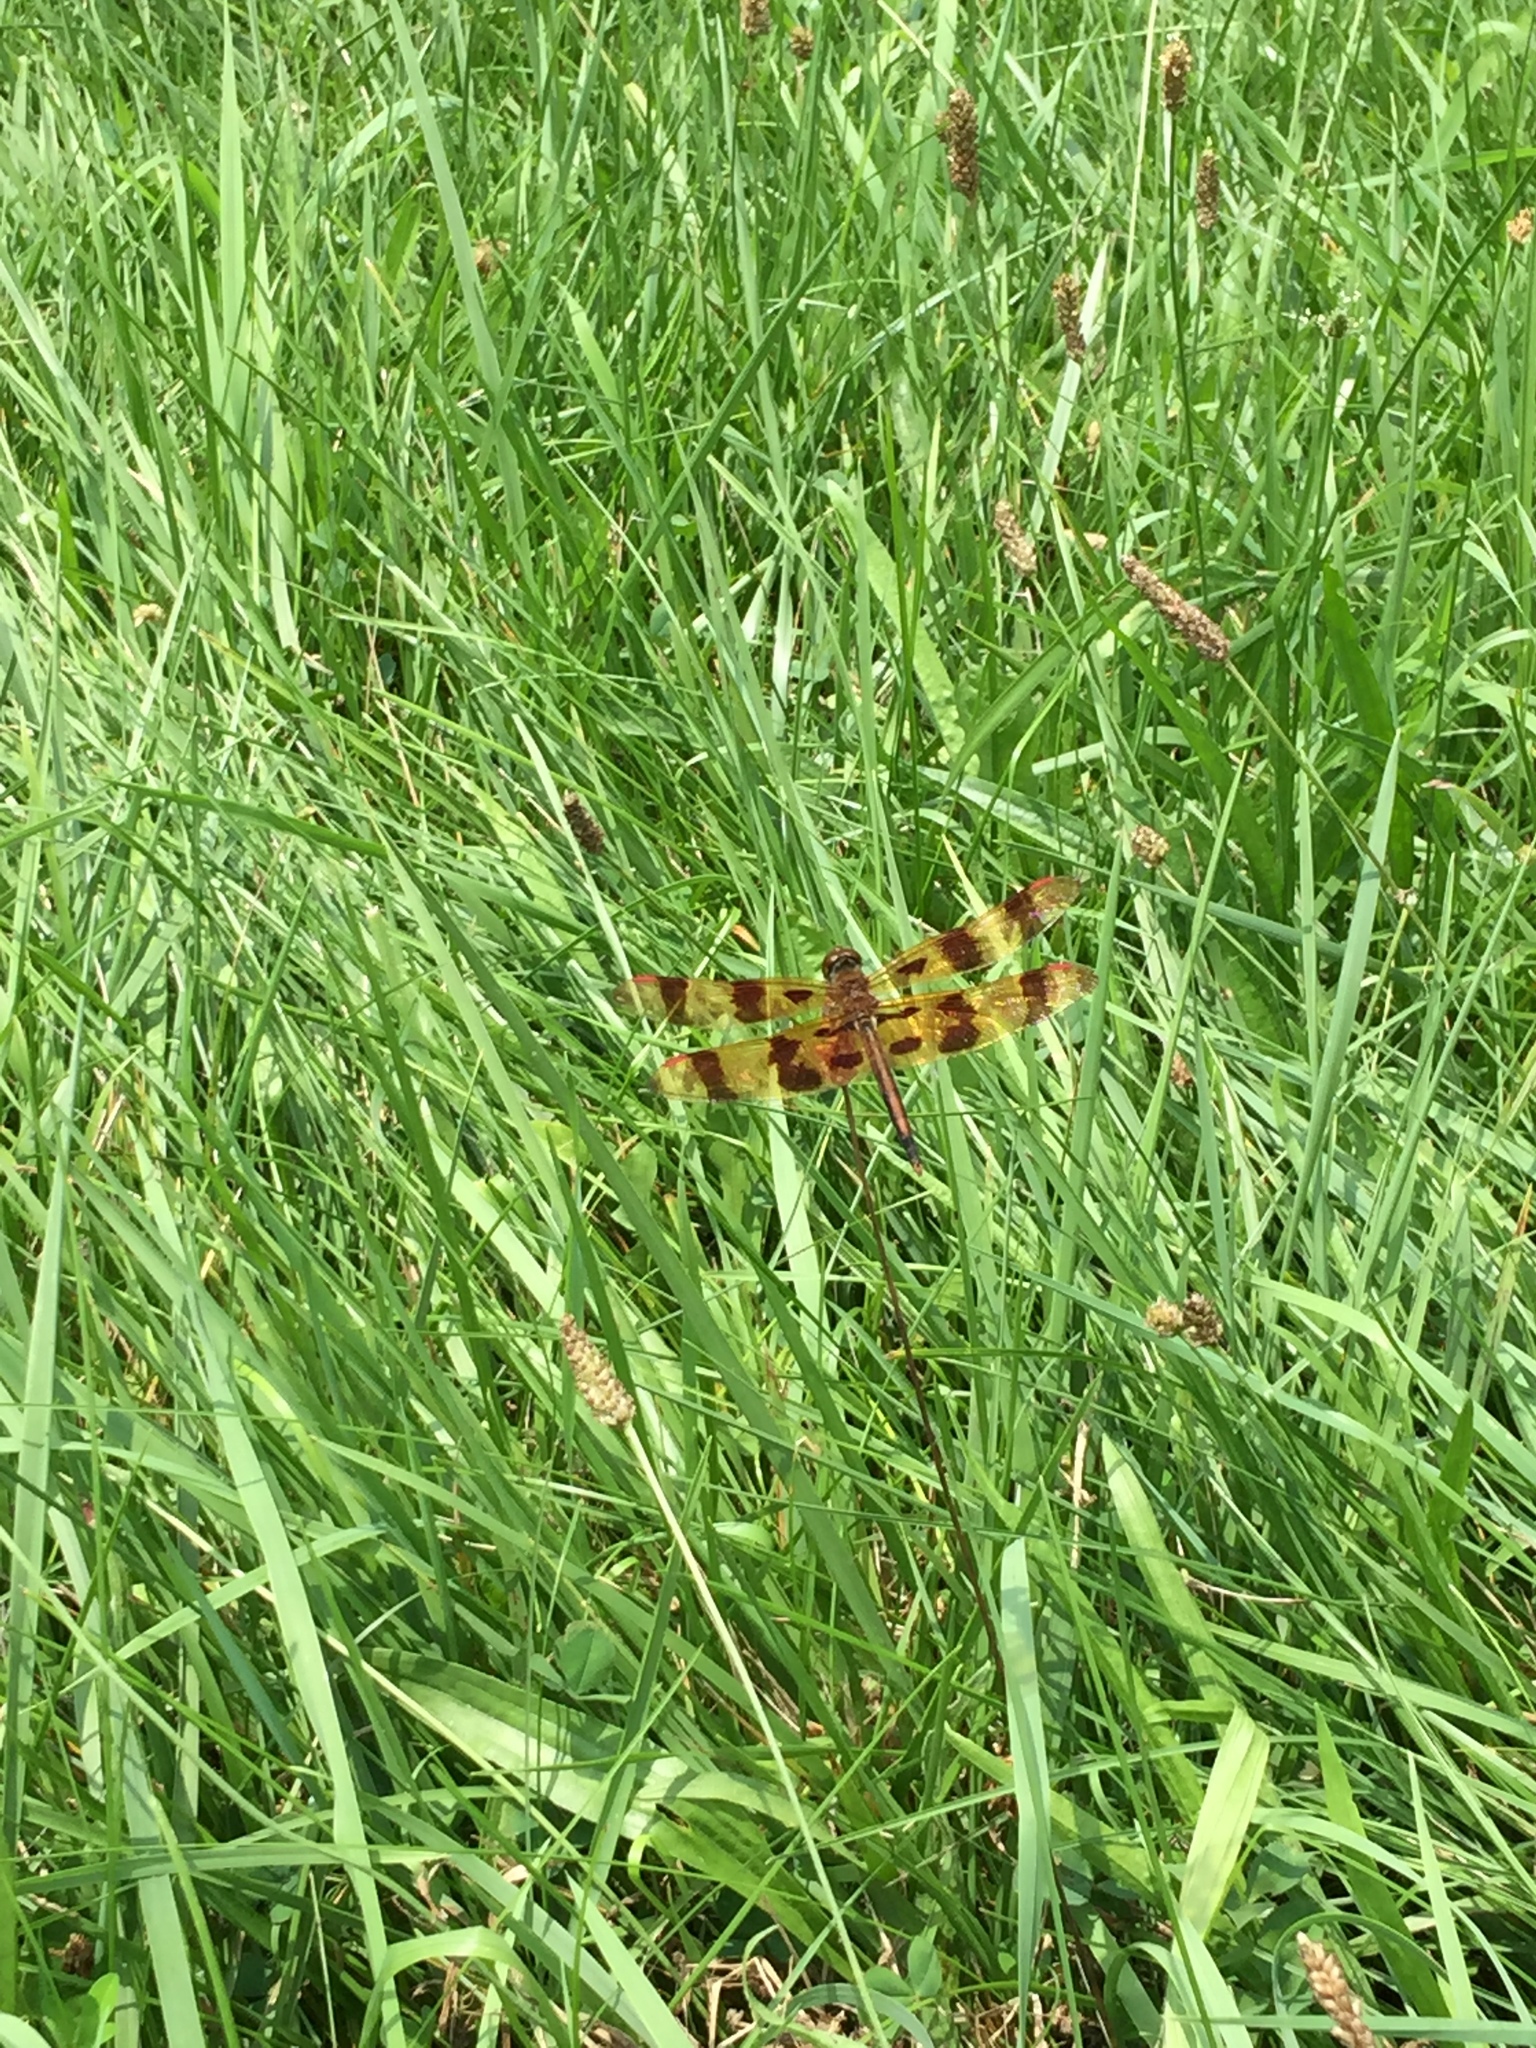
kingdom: Animalia
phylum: Arthropoda
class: Insecta
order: Odonata
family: Libellulidae
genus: Celithemis
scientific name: Celithemis eponina
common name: Halloween pennant
